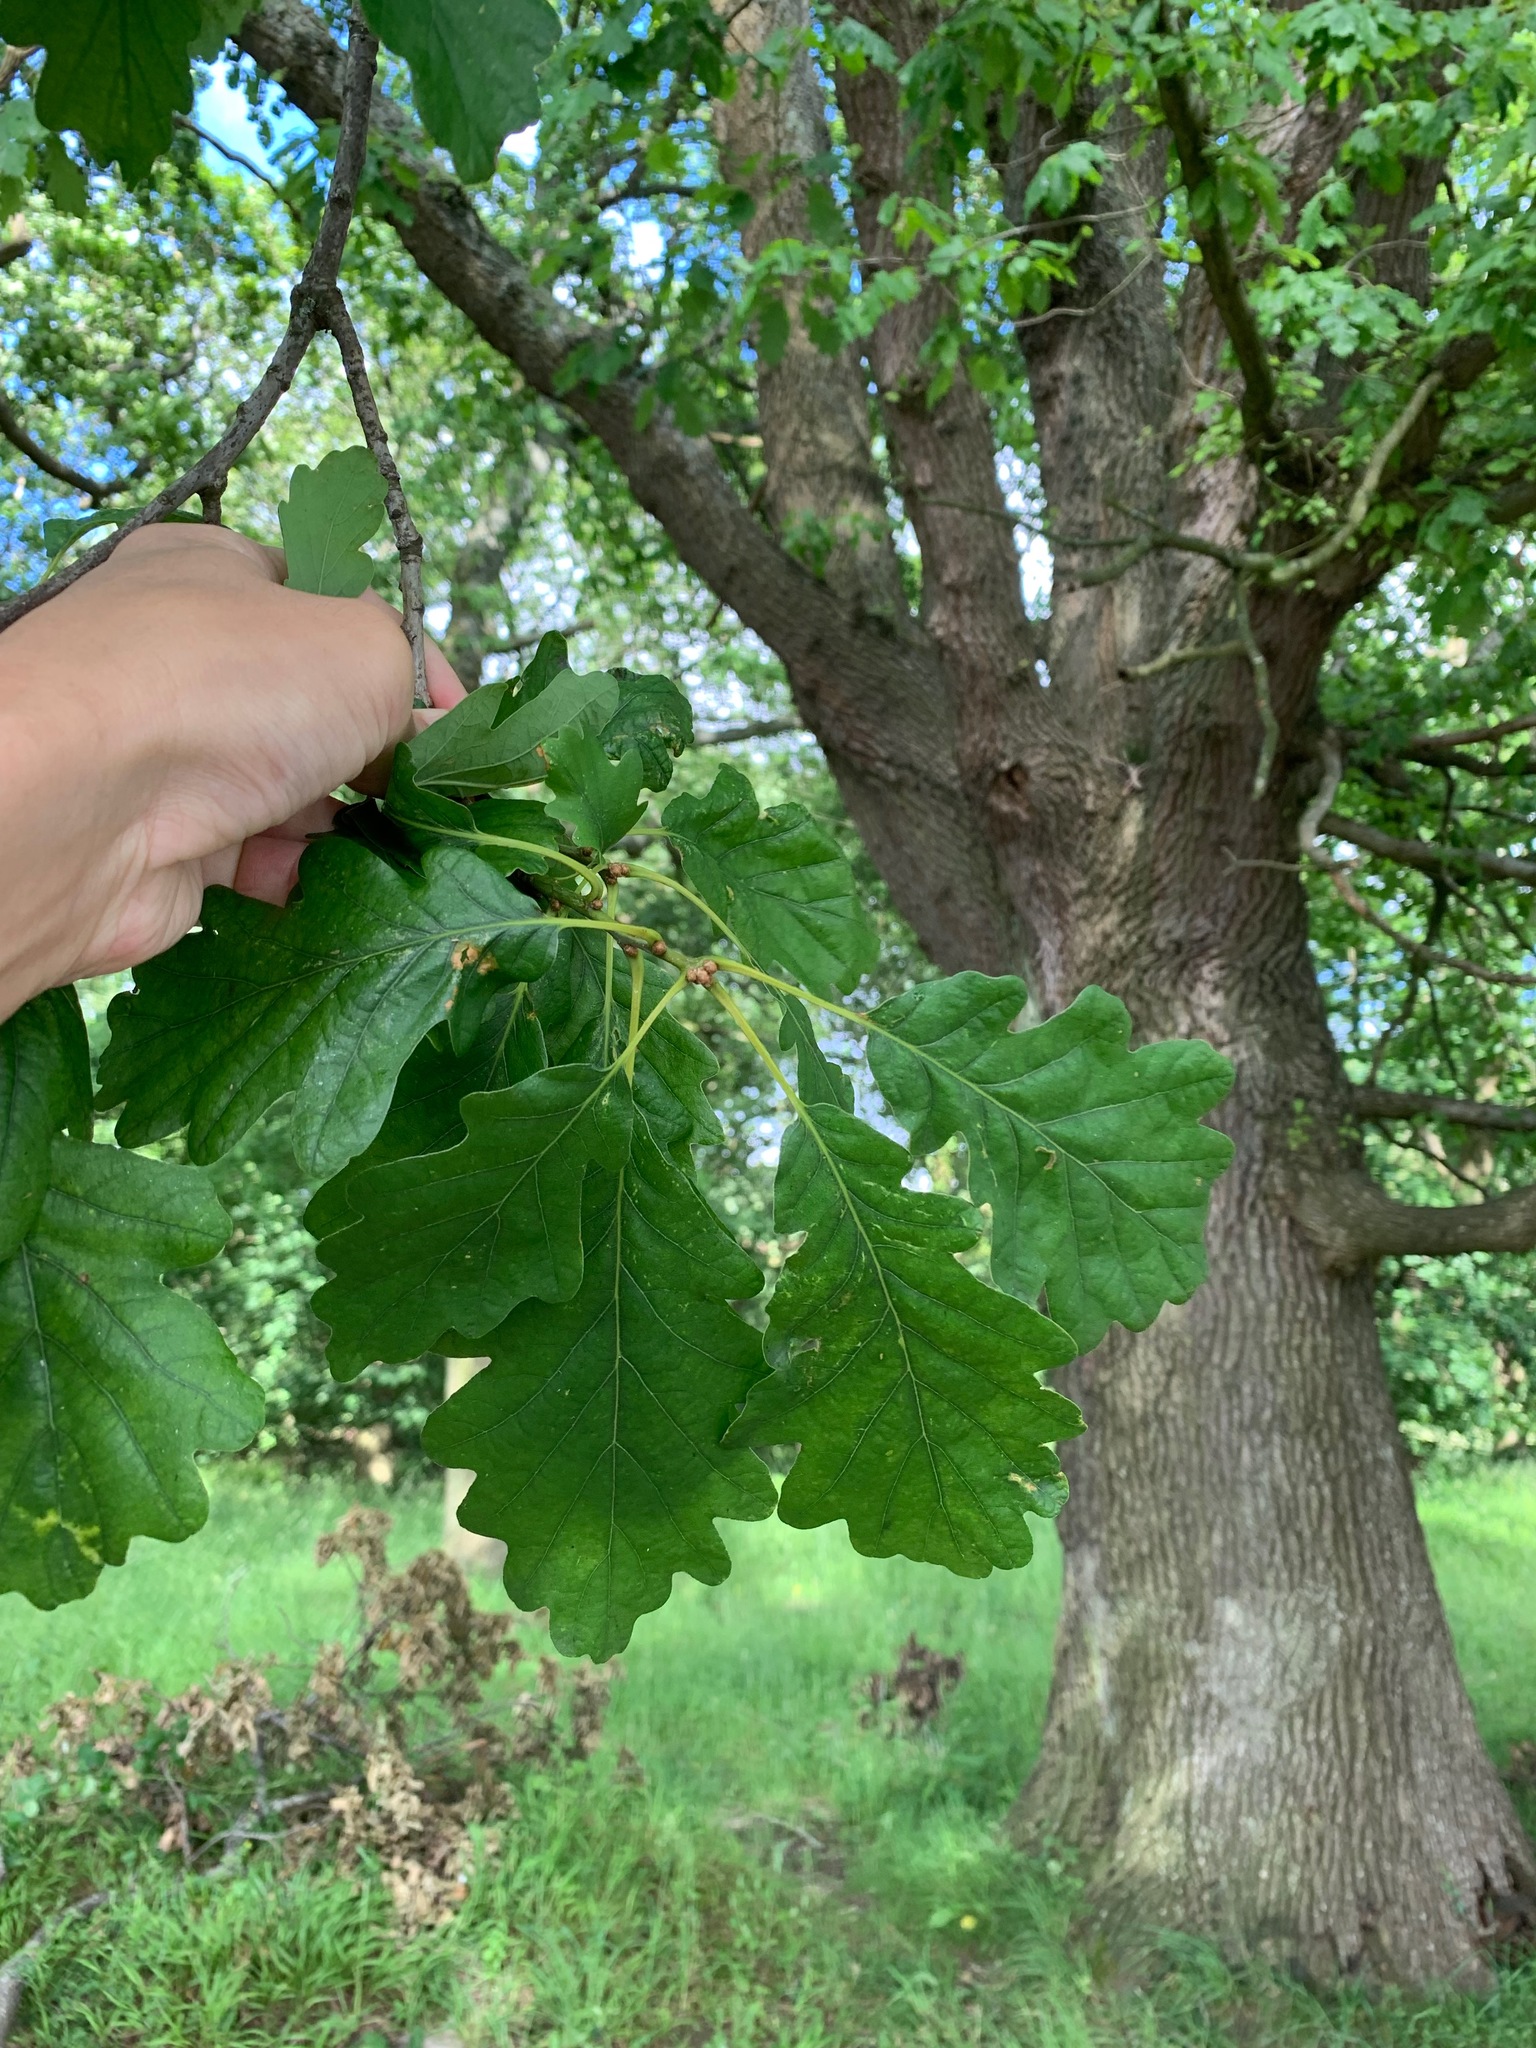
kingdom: Plantae
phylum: Tracheophyta
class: Magnoliopsida
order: Fagales
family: Fagaceae
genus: Quercus
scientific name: Quercus petraea
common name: Sessile oak
